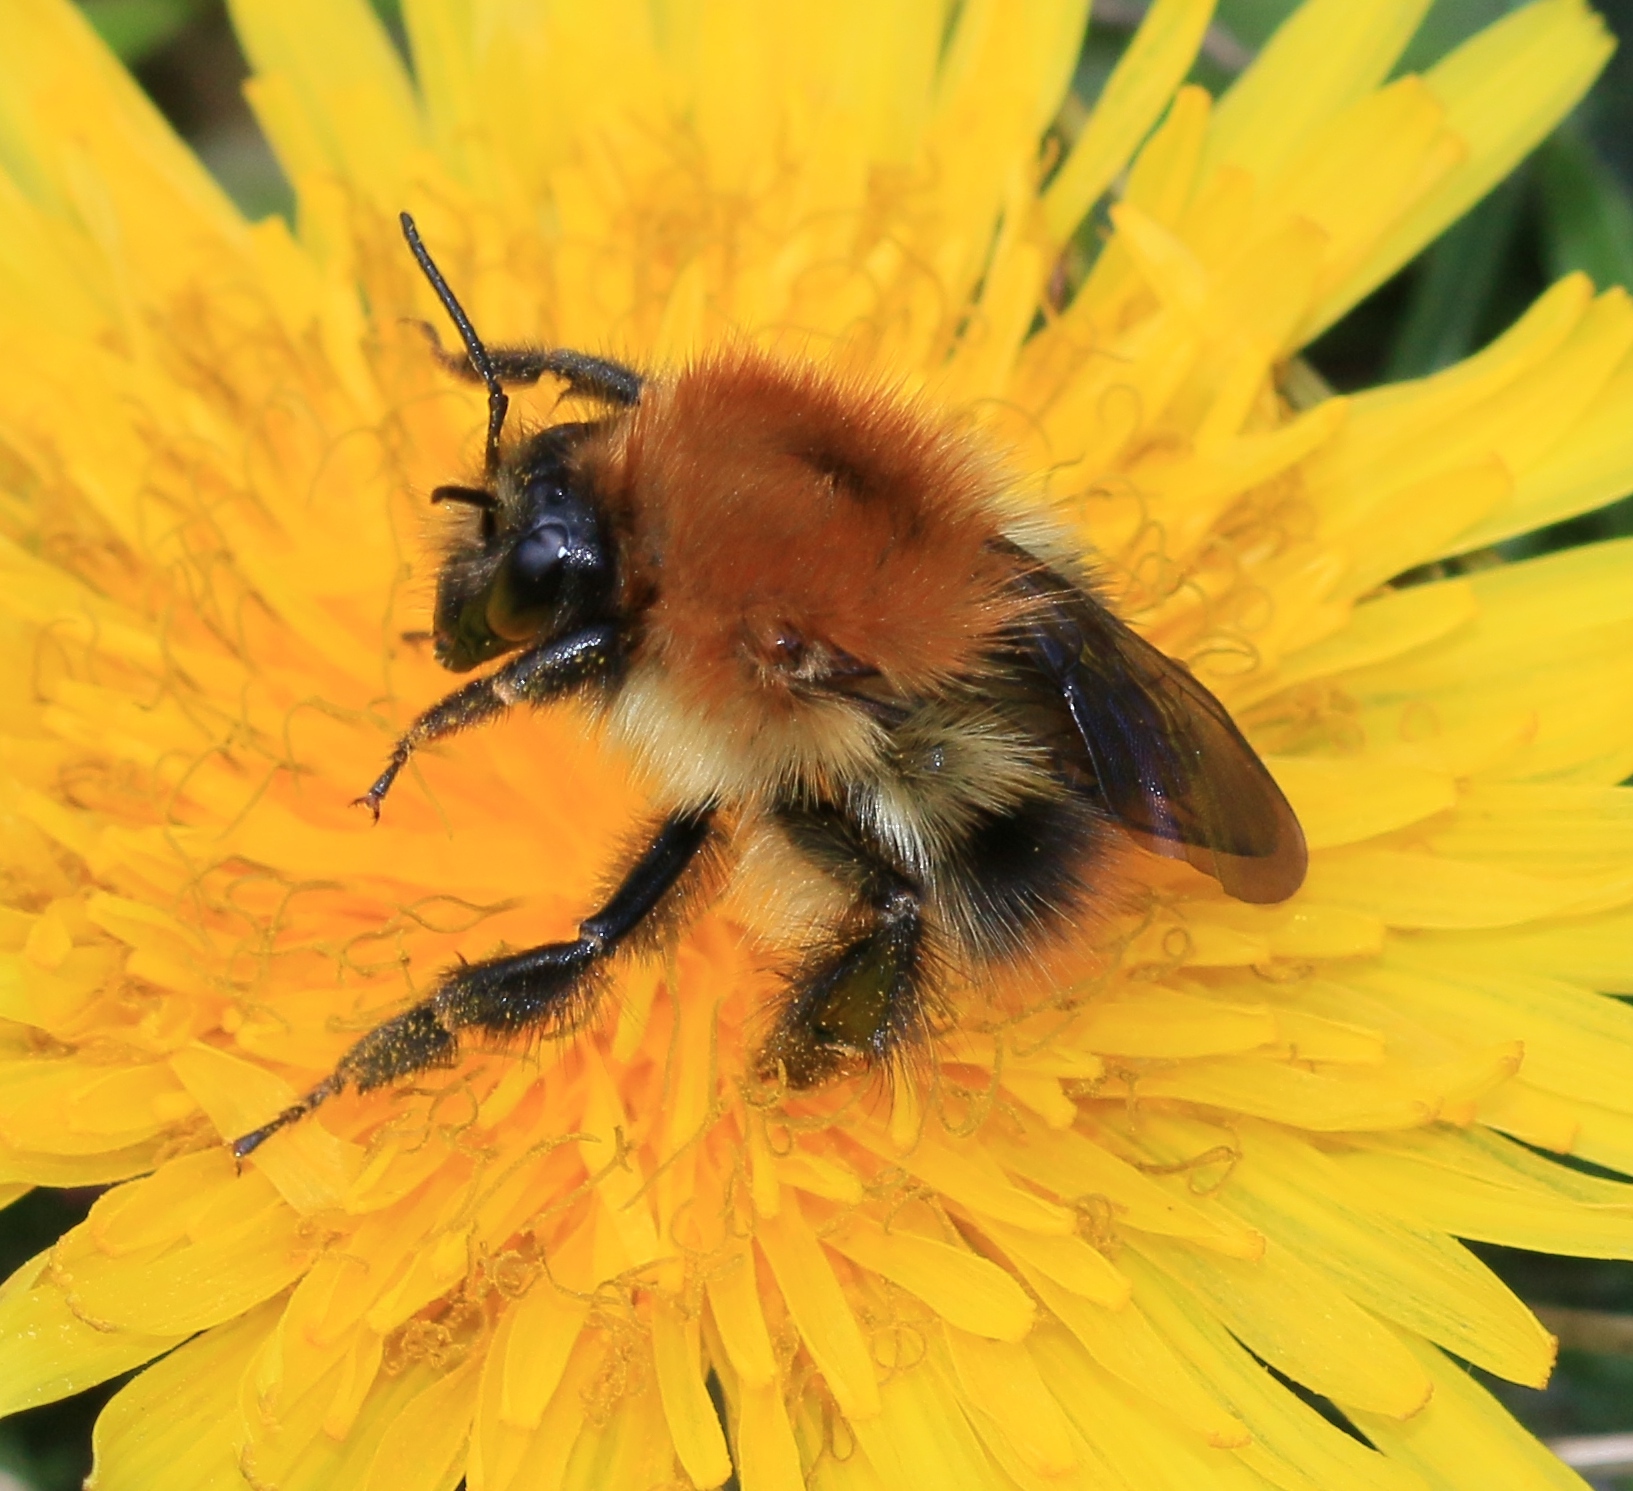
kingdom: Animalia
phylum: Arthropoda
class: Insecta
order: Hymenoptera
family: Apidae
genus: Bombus
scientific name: Bombus pascuorum
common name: Common carder bee
